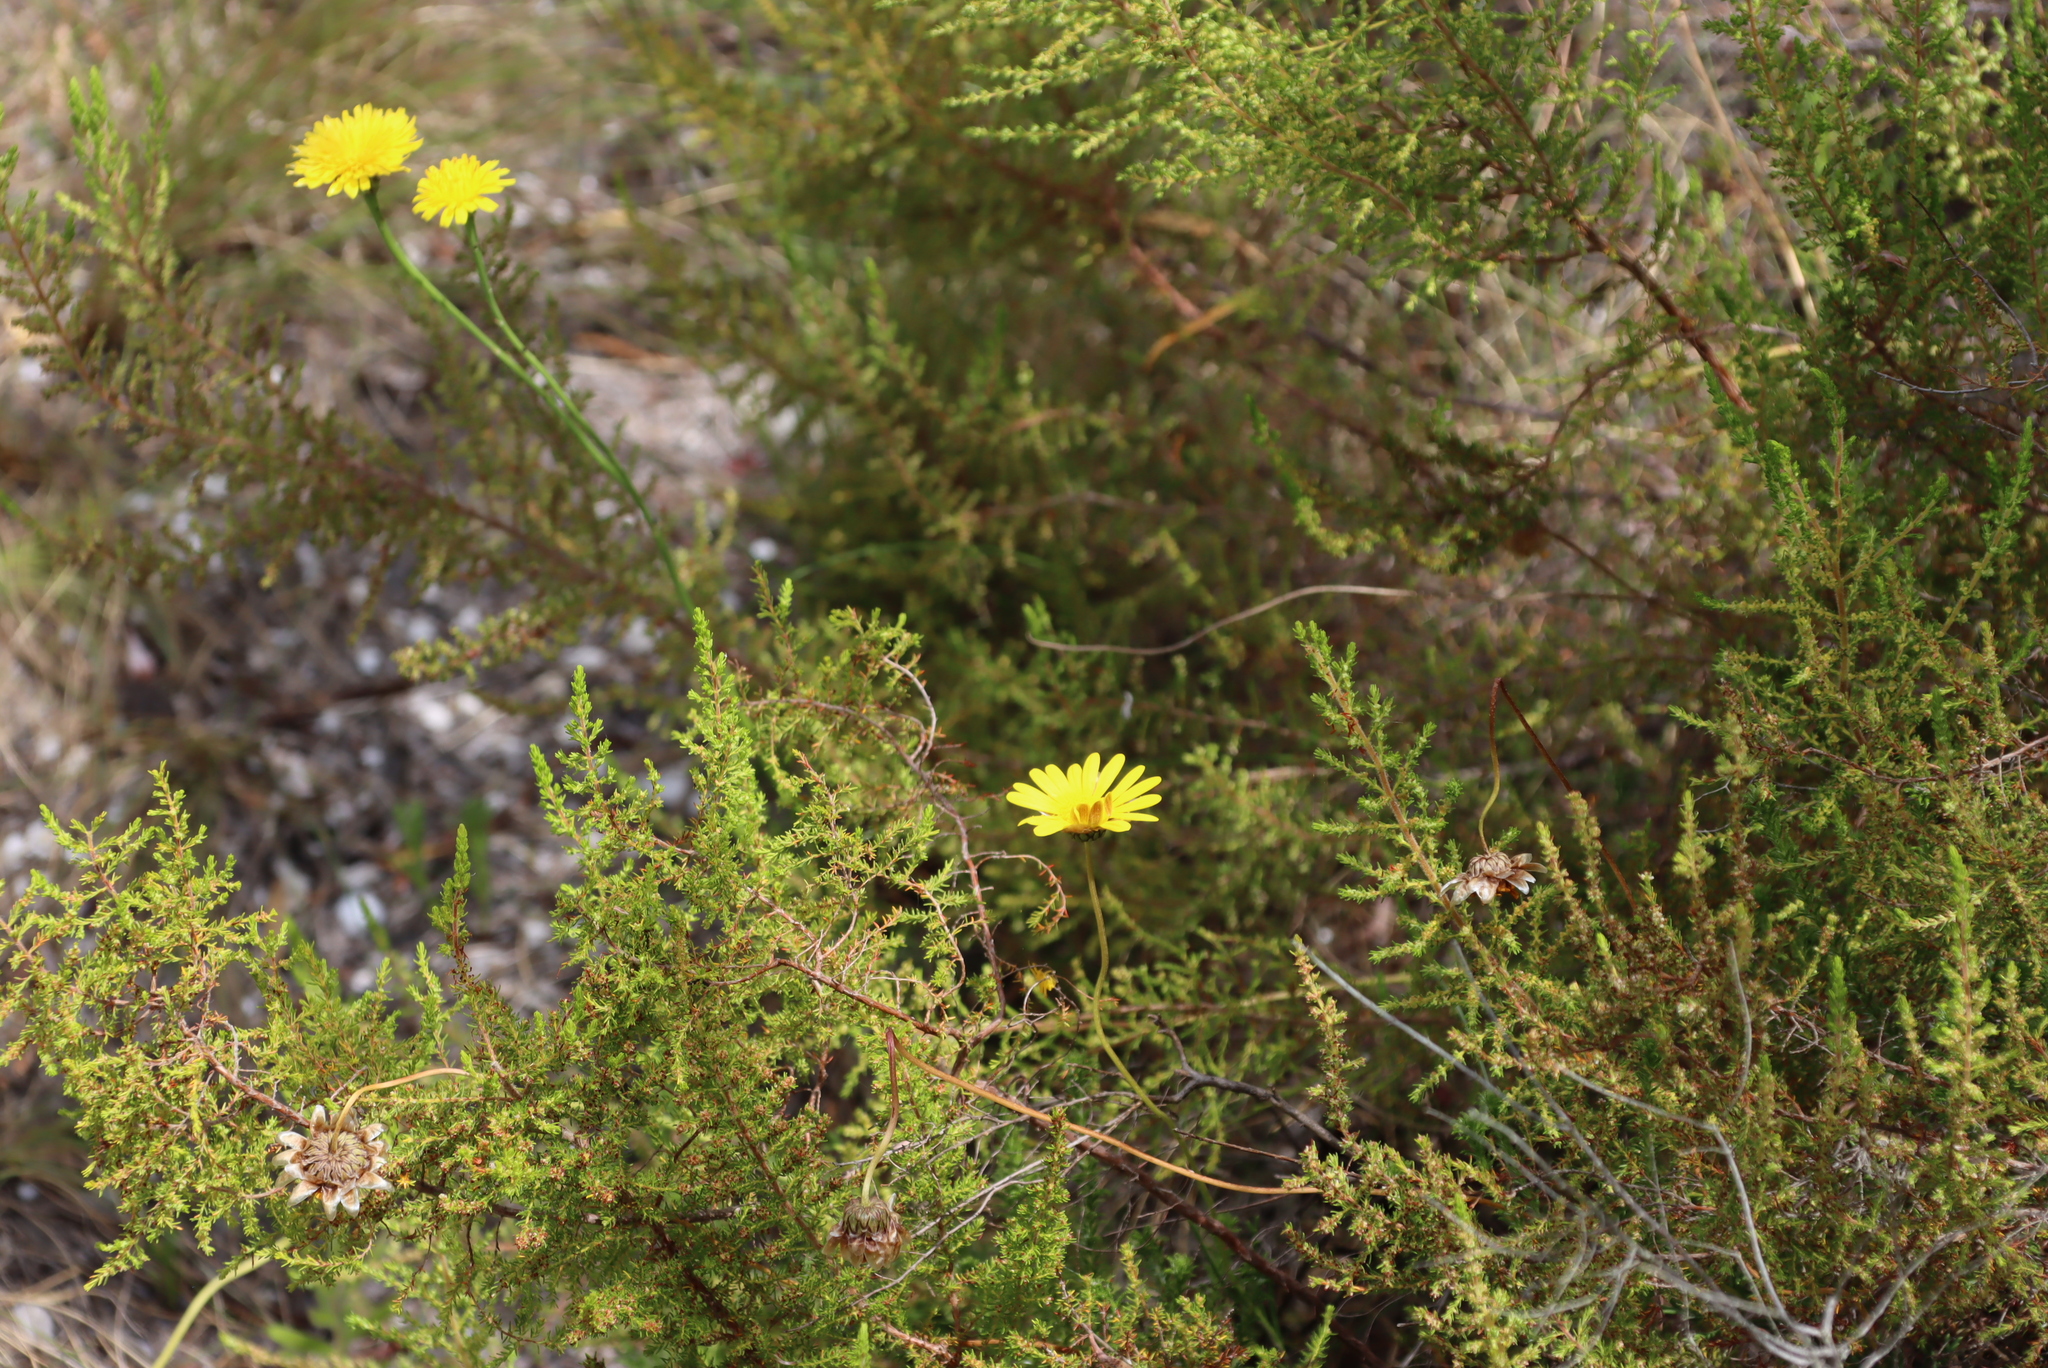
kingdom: Plantae
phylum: Tracheophyta
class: Magnoliopsida
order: Asterales
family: Asteraceae
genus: Hypochaeris
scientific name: Hypochaeris radicata
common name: Flatweed
